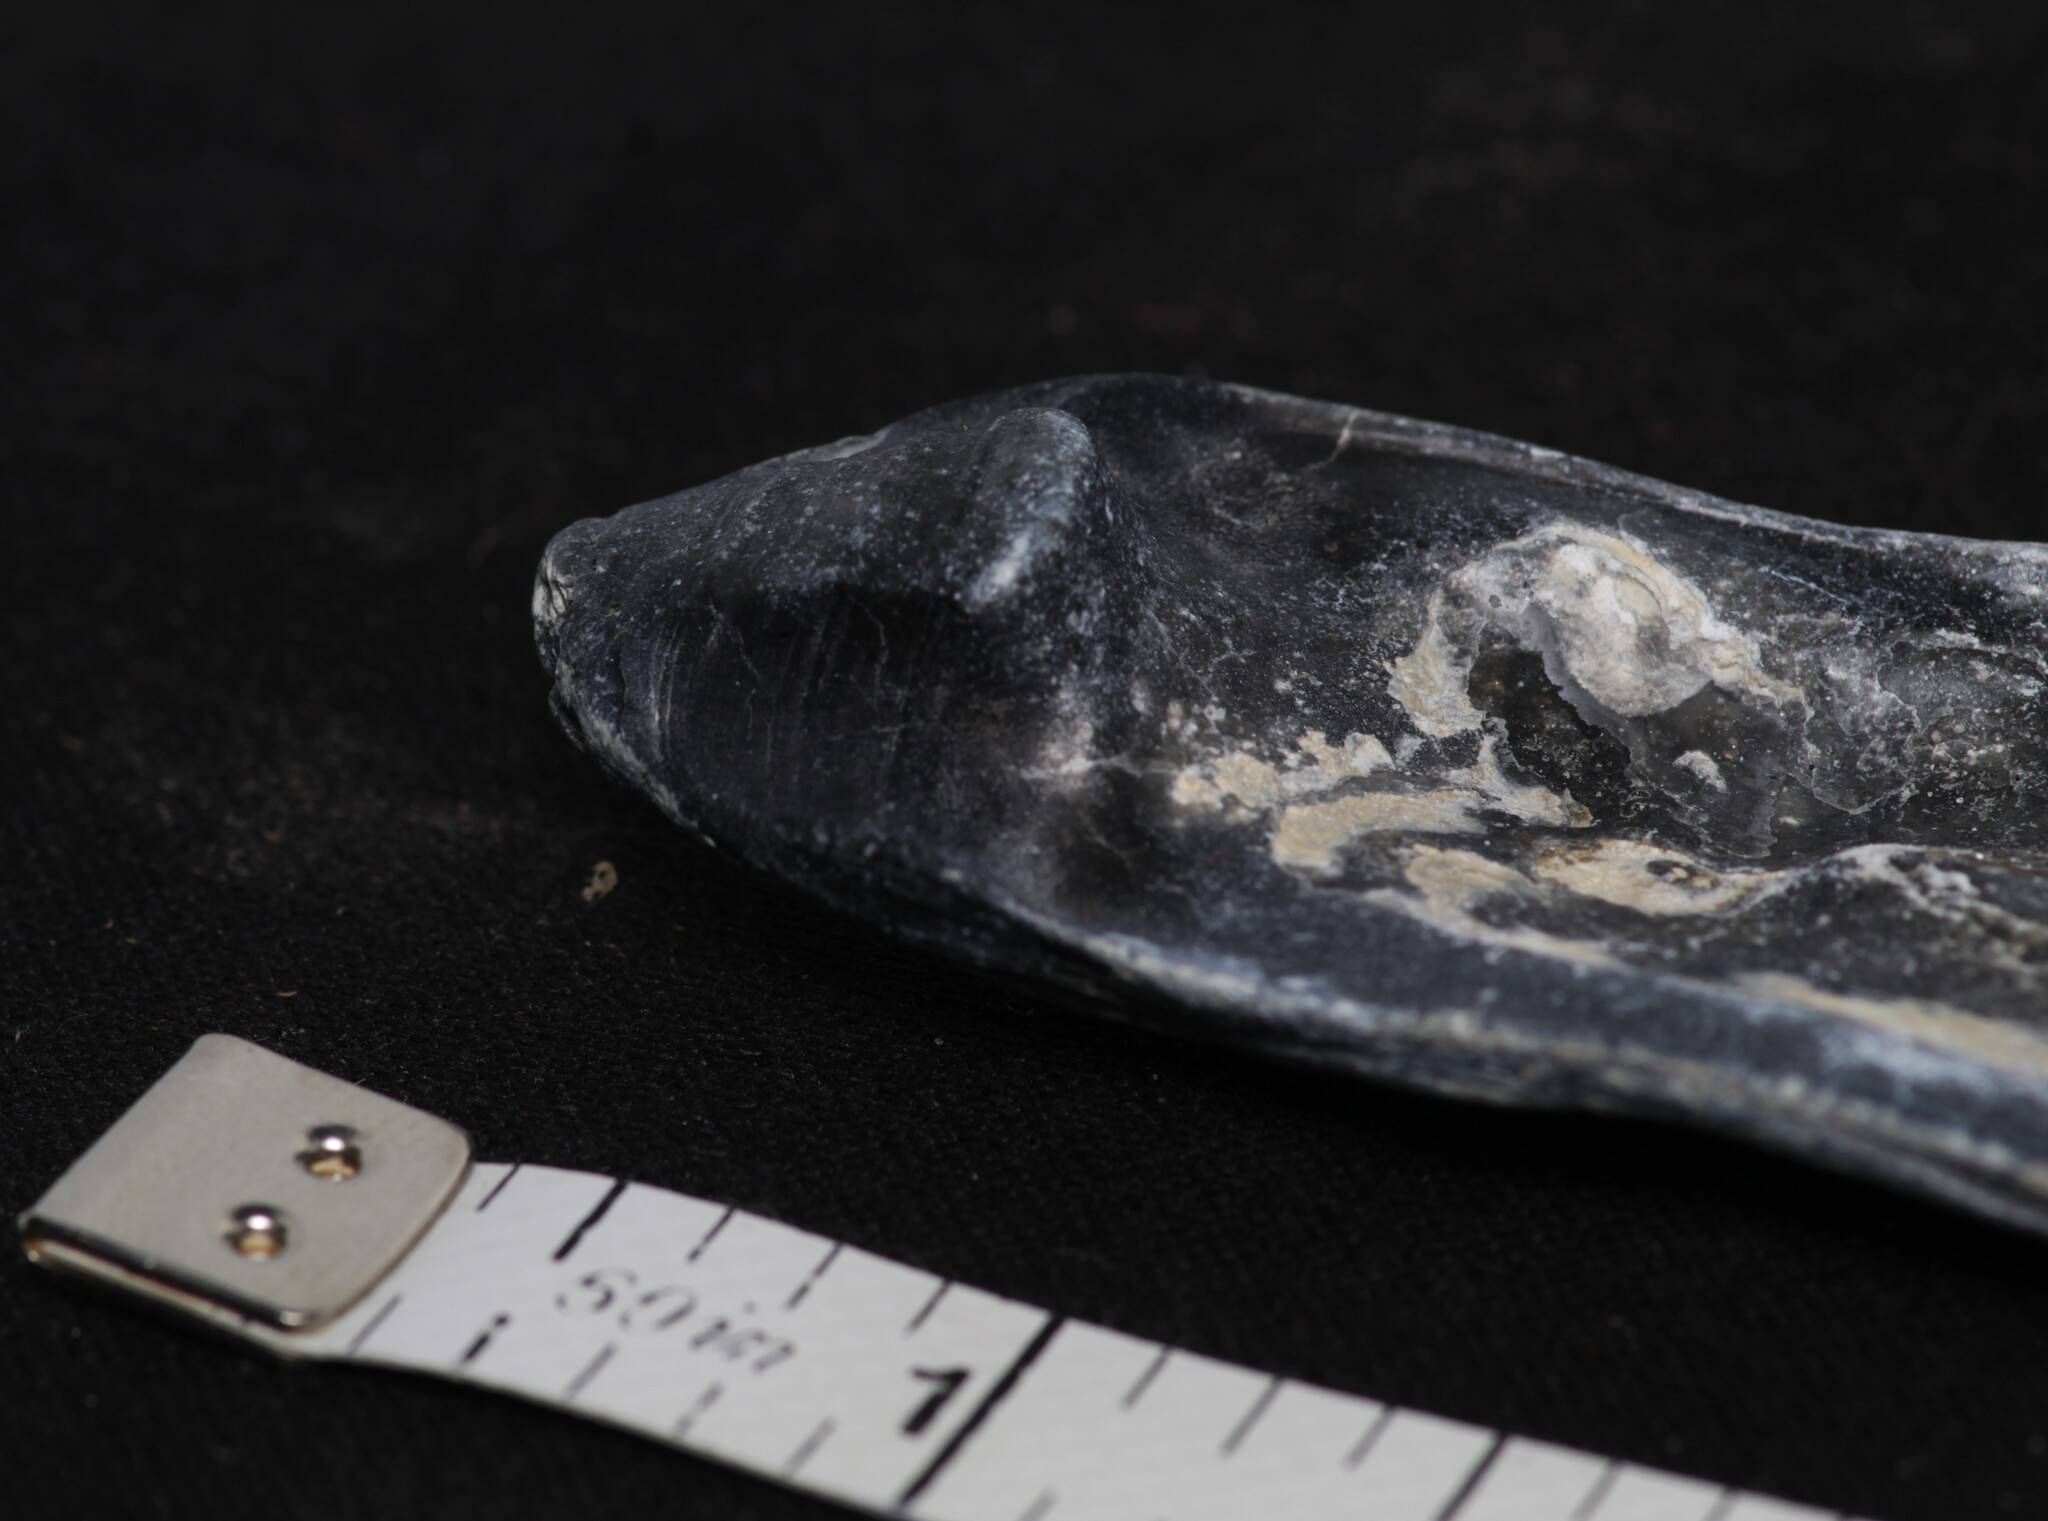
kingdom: Animalia
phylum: Mollusca
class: Bivalvia
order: Ostreida
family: Ostreidae
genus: Crassostrea
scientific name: Crassostrea virginica
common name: American oyster
